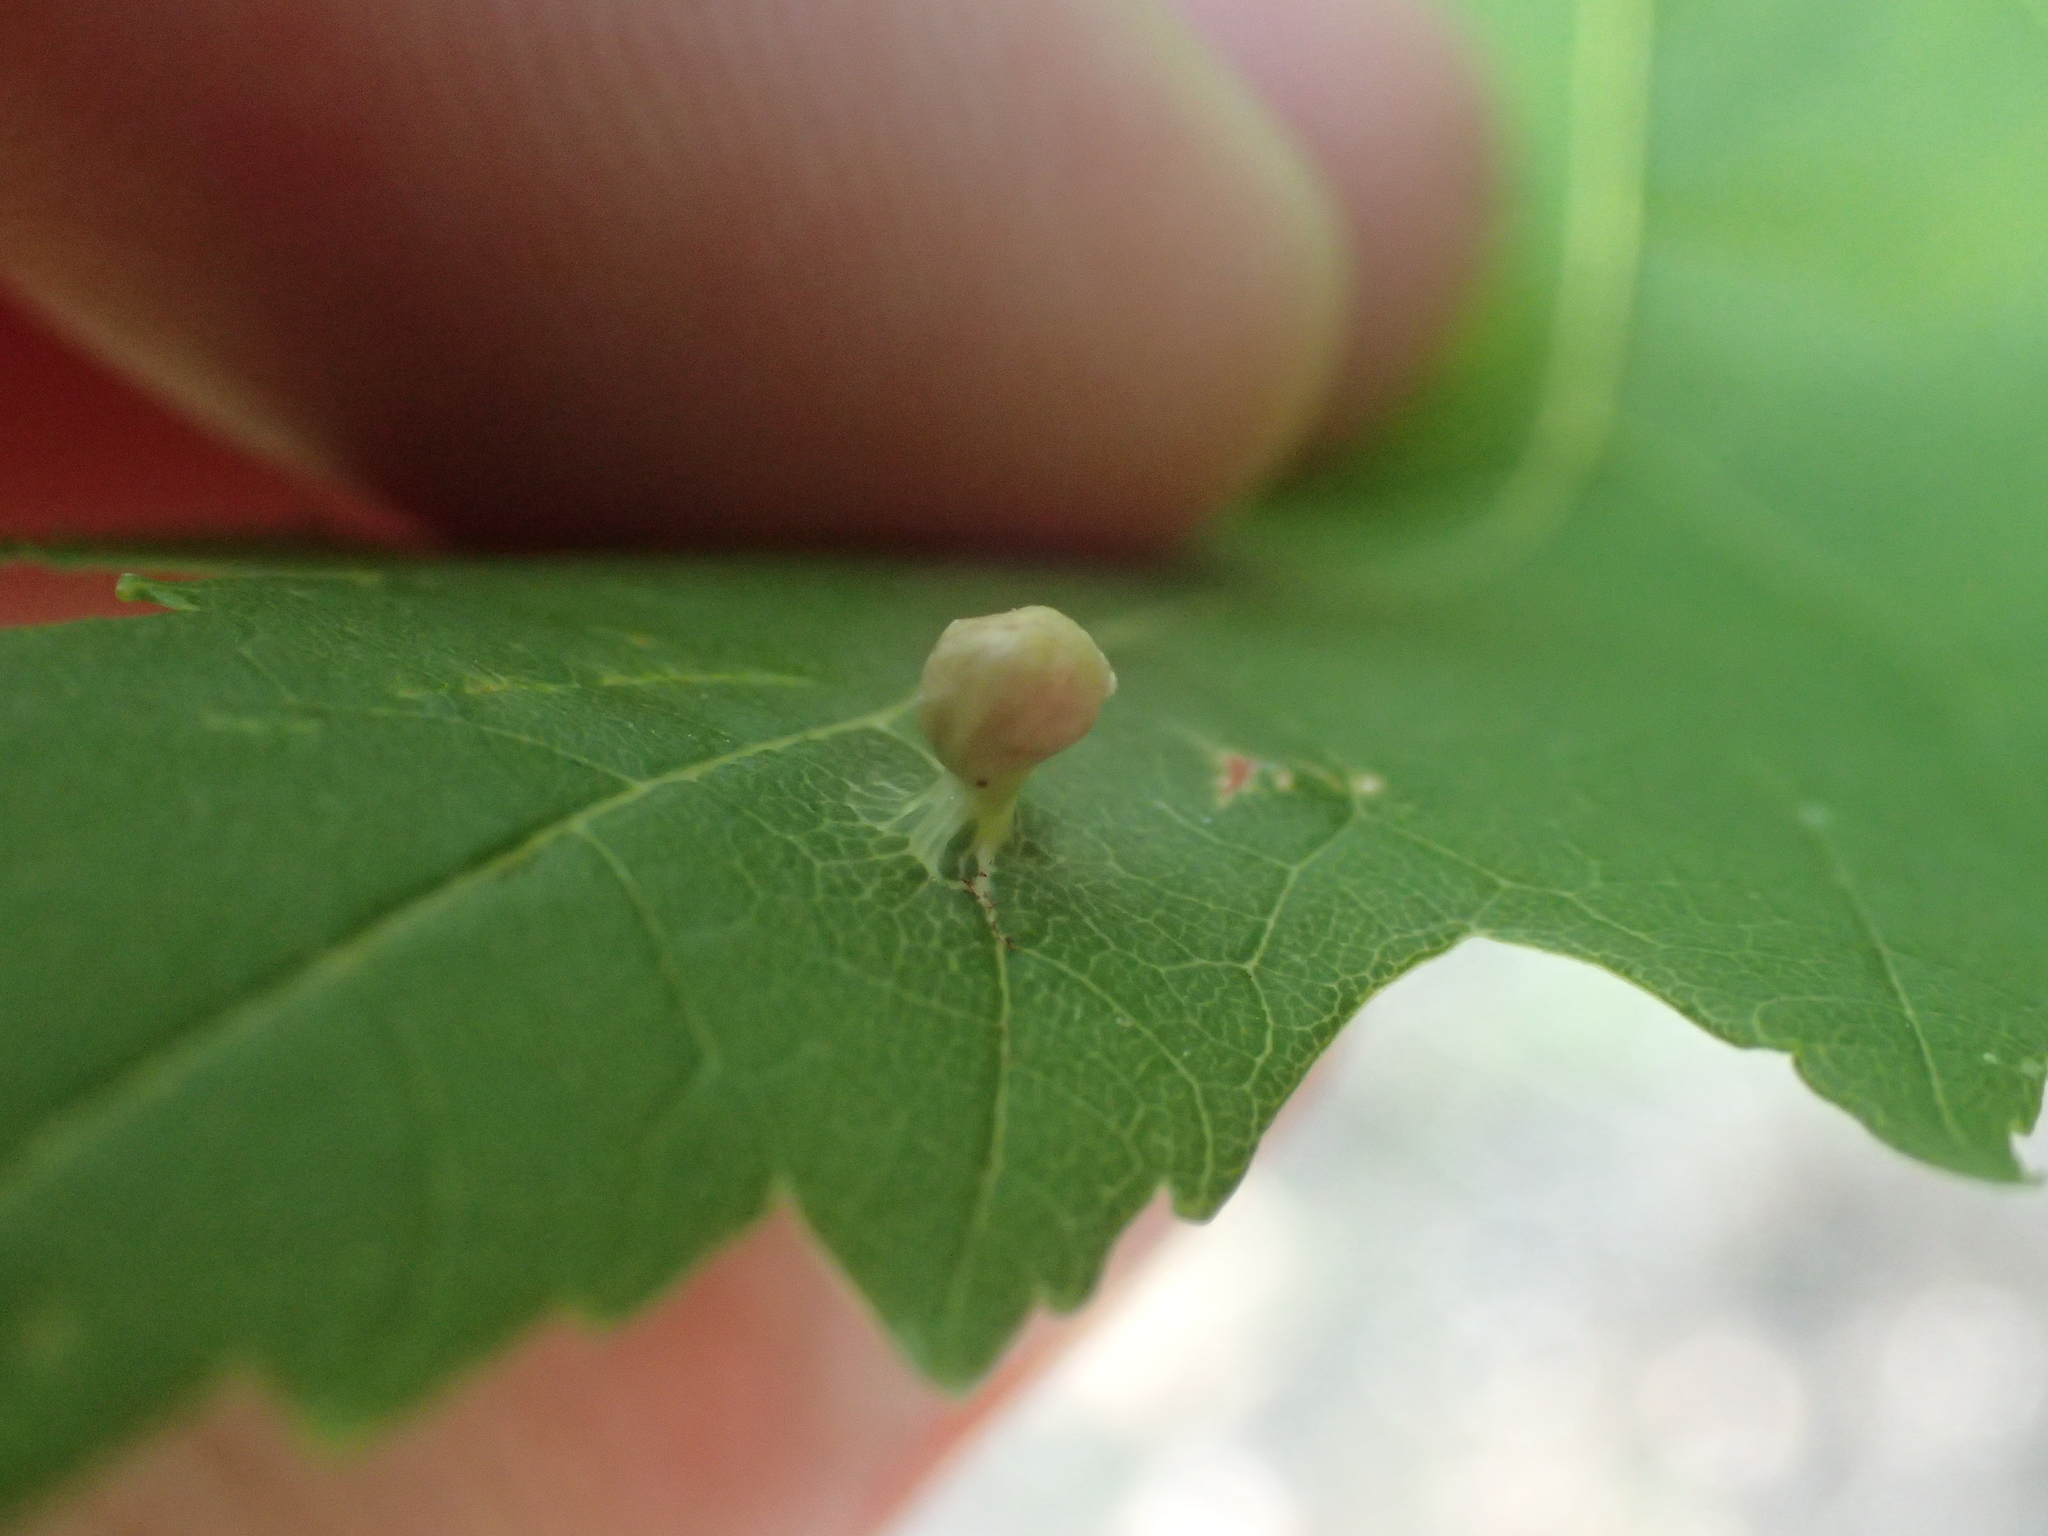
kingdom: Animalia
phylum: Arthropoda
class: Arachnida
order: Trombidiformes
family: Eriophyidae
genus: Vasates
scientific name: Vasates quadripedes
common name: Maple bladder gall mite
